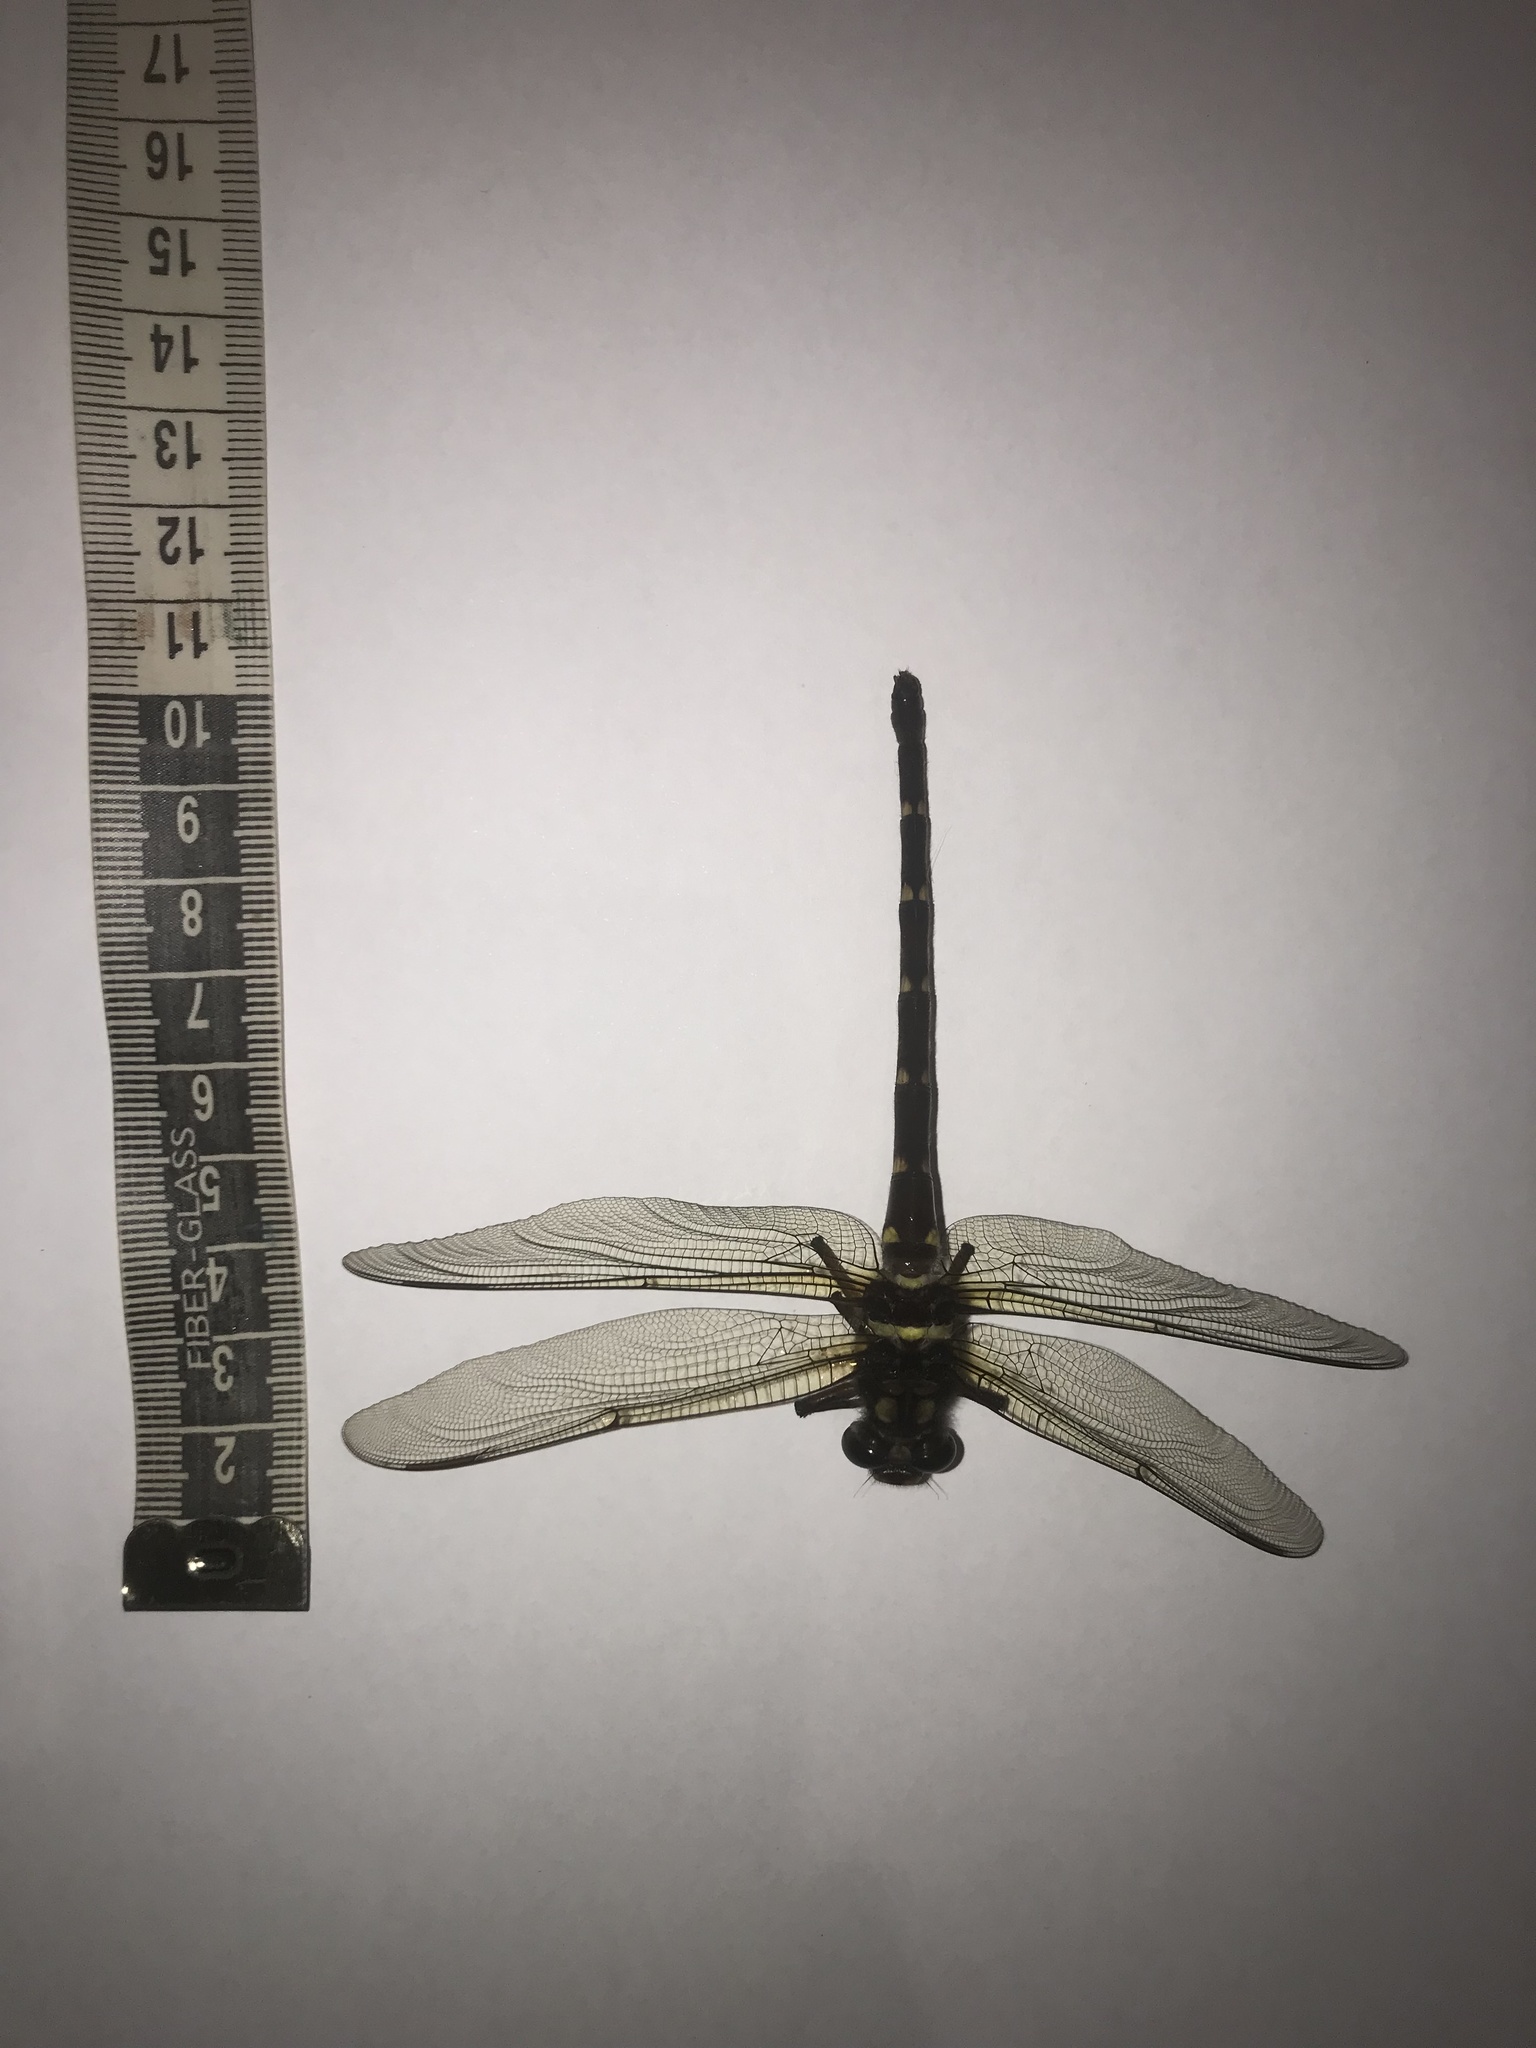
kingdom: Animalia
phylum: Arthropoda
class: Insecta
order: Odonata
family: Petaluridae
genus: Uropetala
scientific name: Uropetala carovei
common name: Bush giant dragonfly
